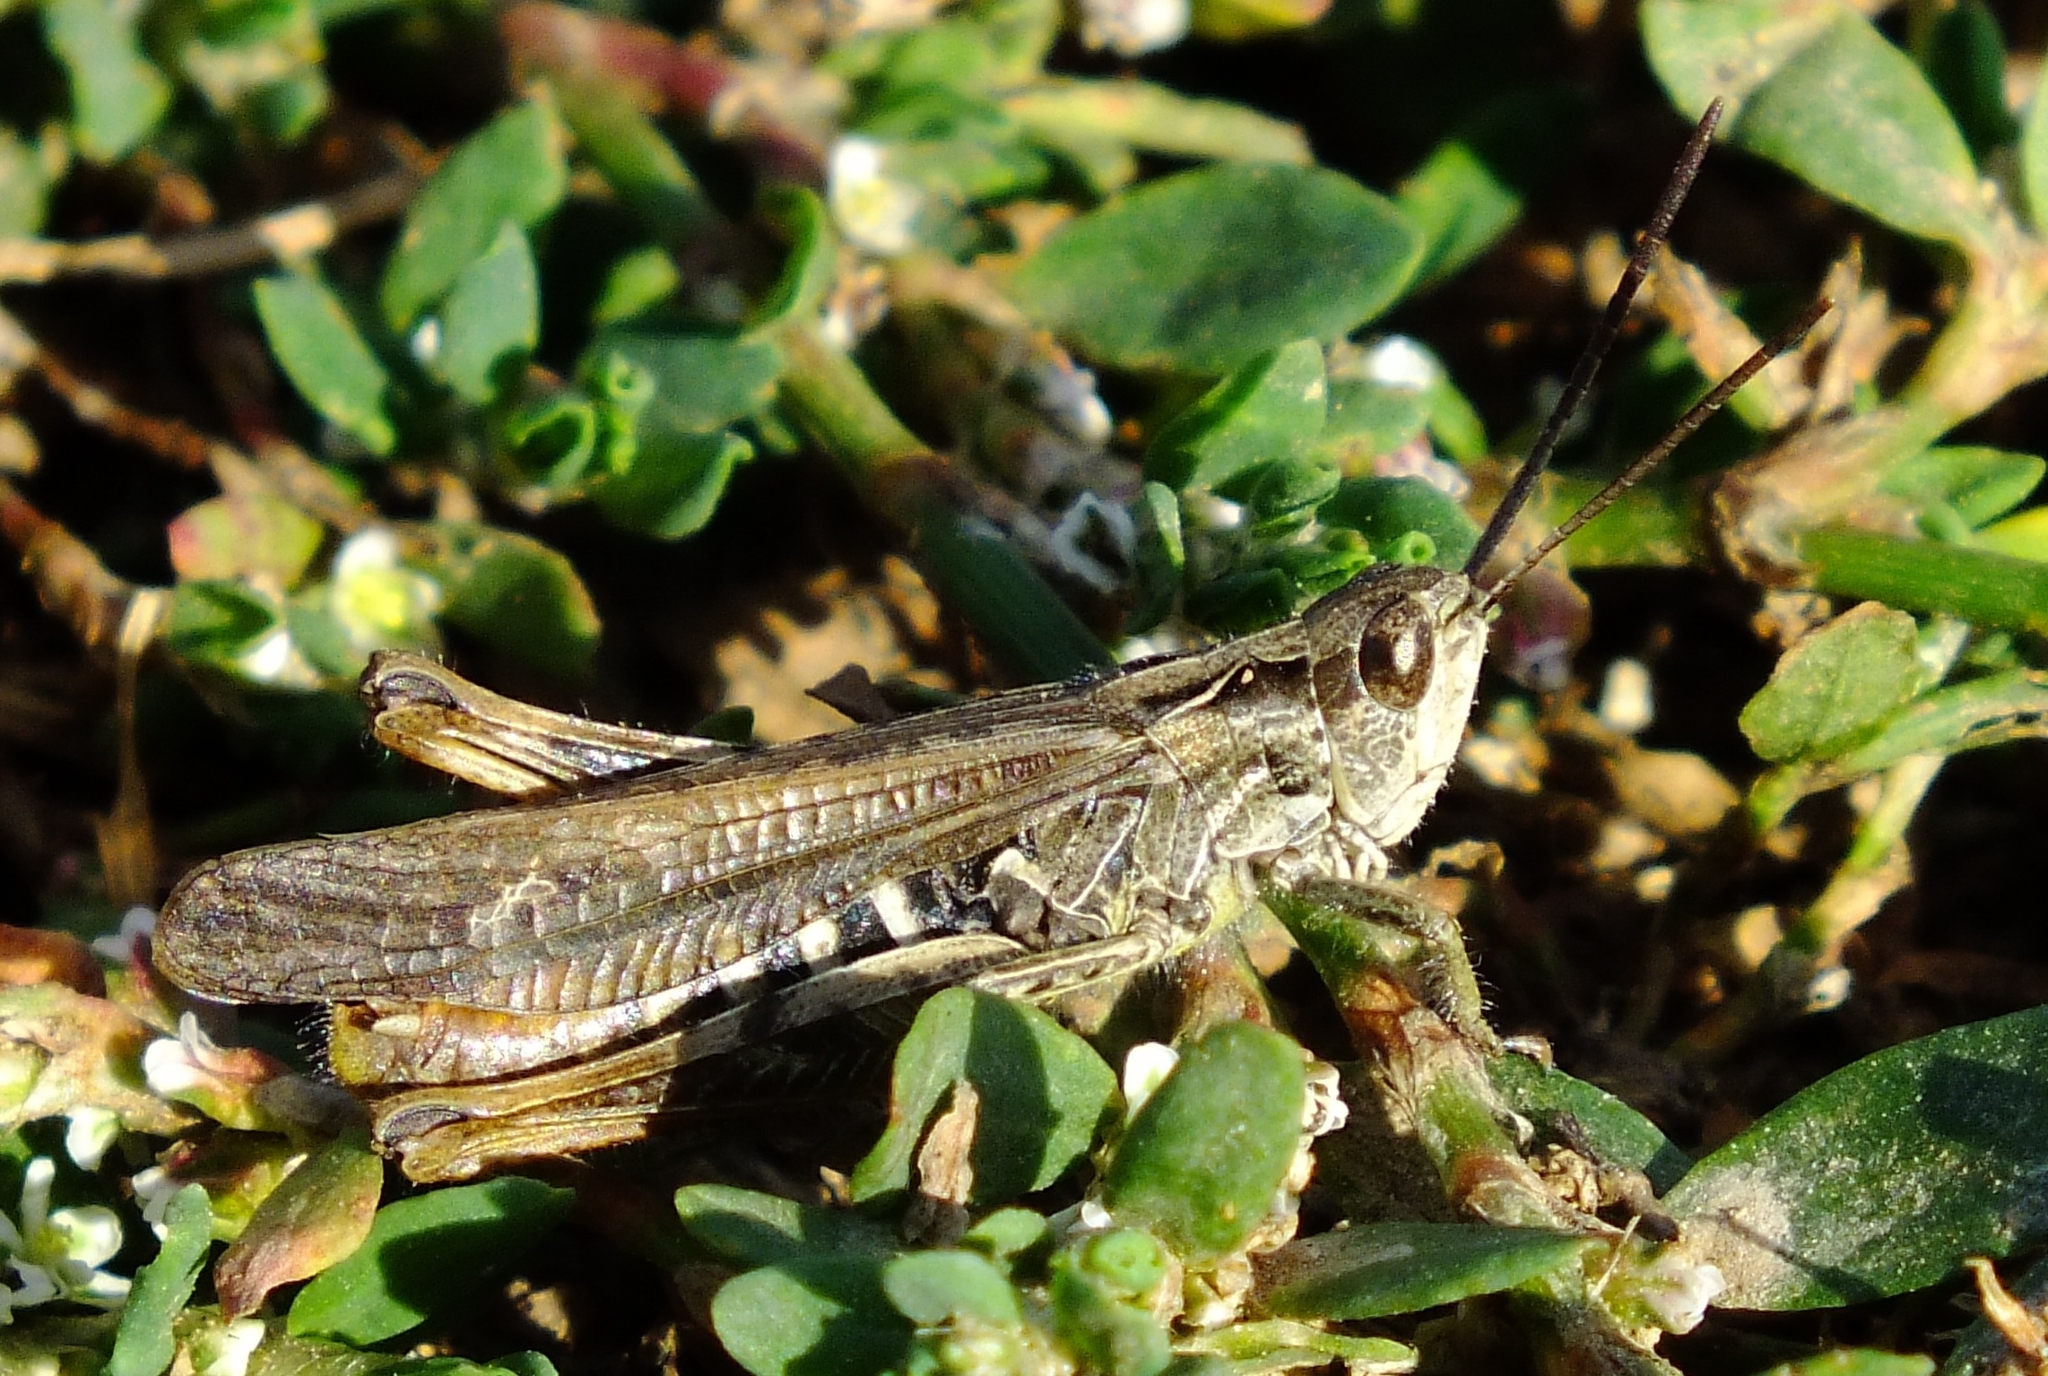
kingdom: Animalia
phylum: Arthropoda
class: Insecta
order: Orthoptera
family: Acrididae
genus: Chorthippus
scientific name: Chorthippus biguttulus
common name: Bow-winged grasshopper
